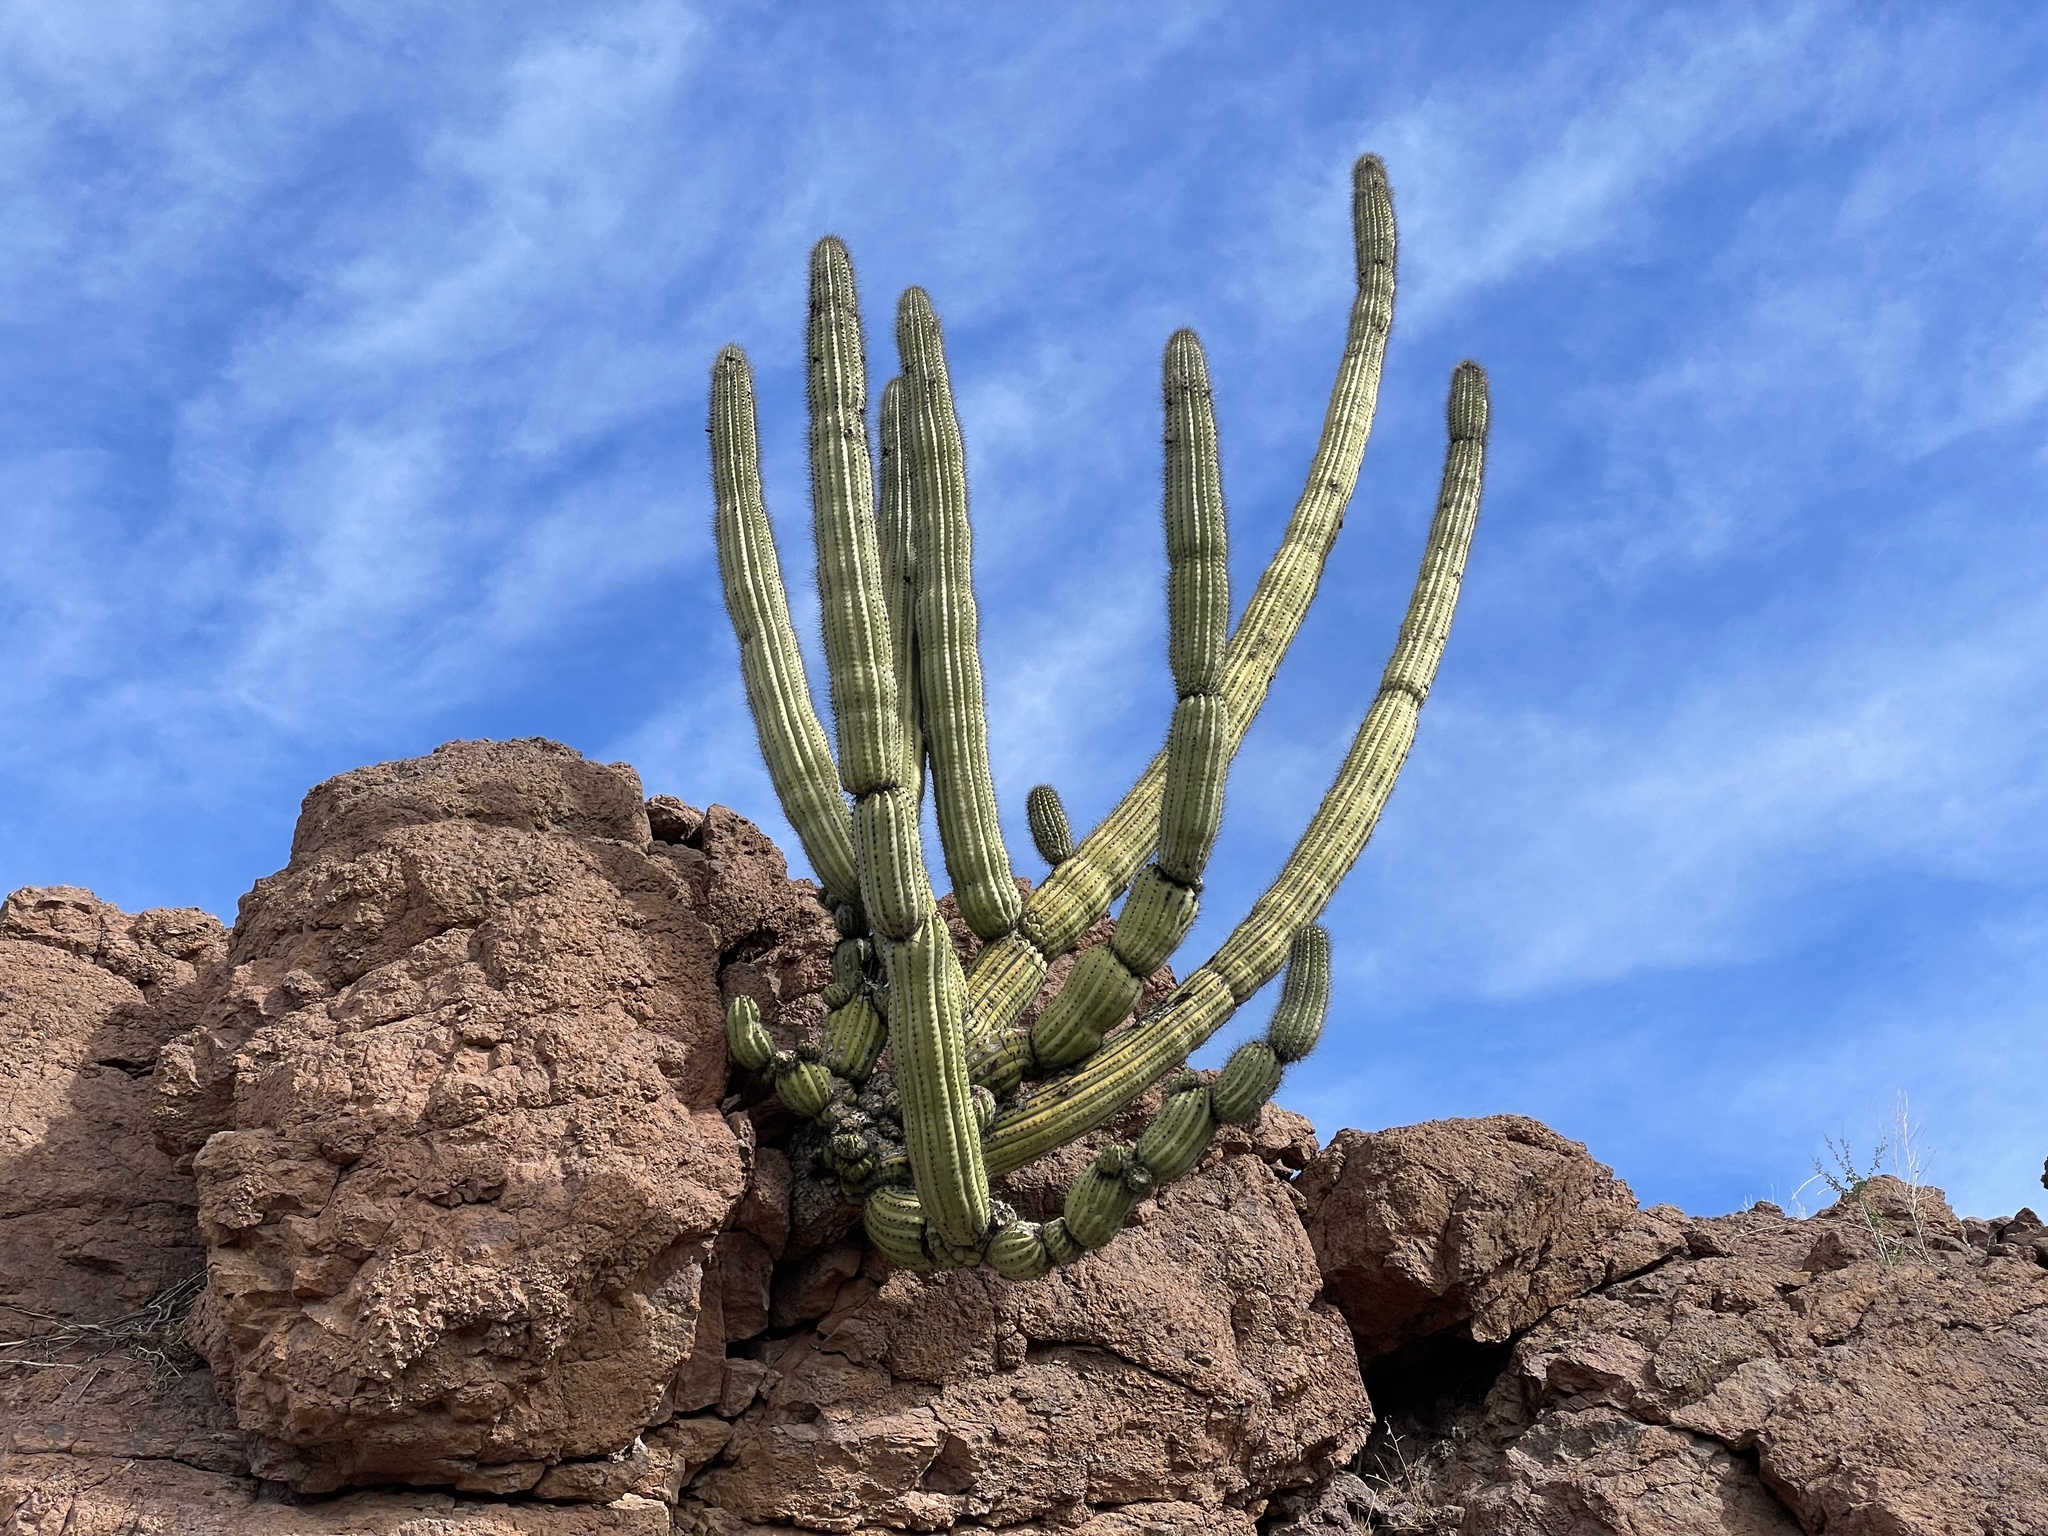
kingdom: Plantae
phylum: Tracheophyta
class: Magnoliopsida
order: Caryophyllales
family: Cactaceae
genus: Stenocereus
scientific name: Stenocereus thurberi
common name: Organ pipe cactus
